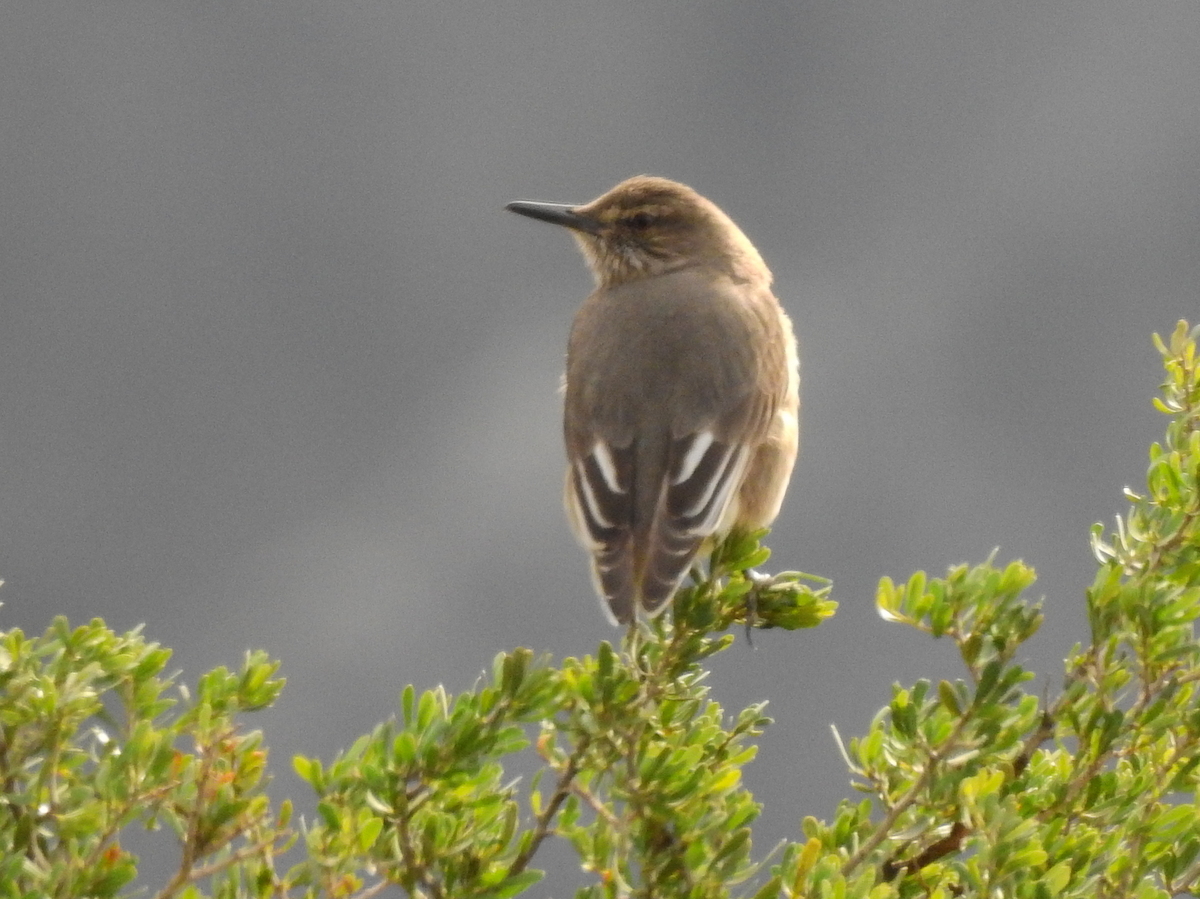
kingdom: Animalia
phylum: Chordata
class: Aves
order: Passeriformes
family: Tyrannidae
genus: Agriornis
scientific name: Agriornis montanus
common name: Black-billed shrike-tyrant
